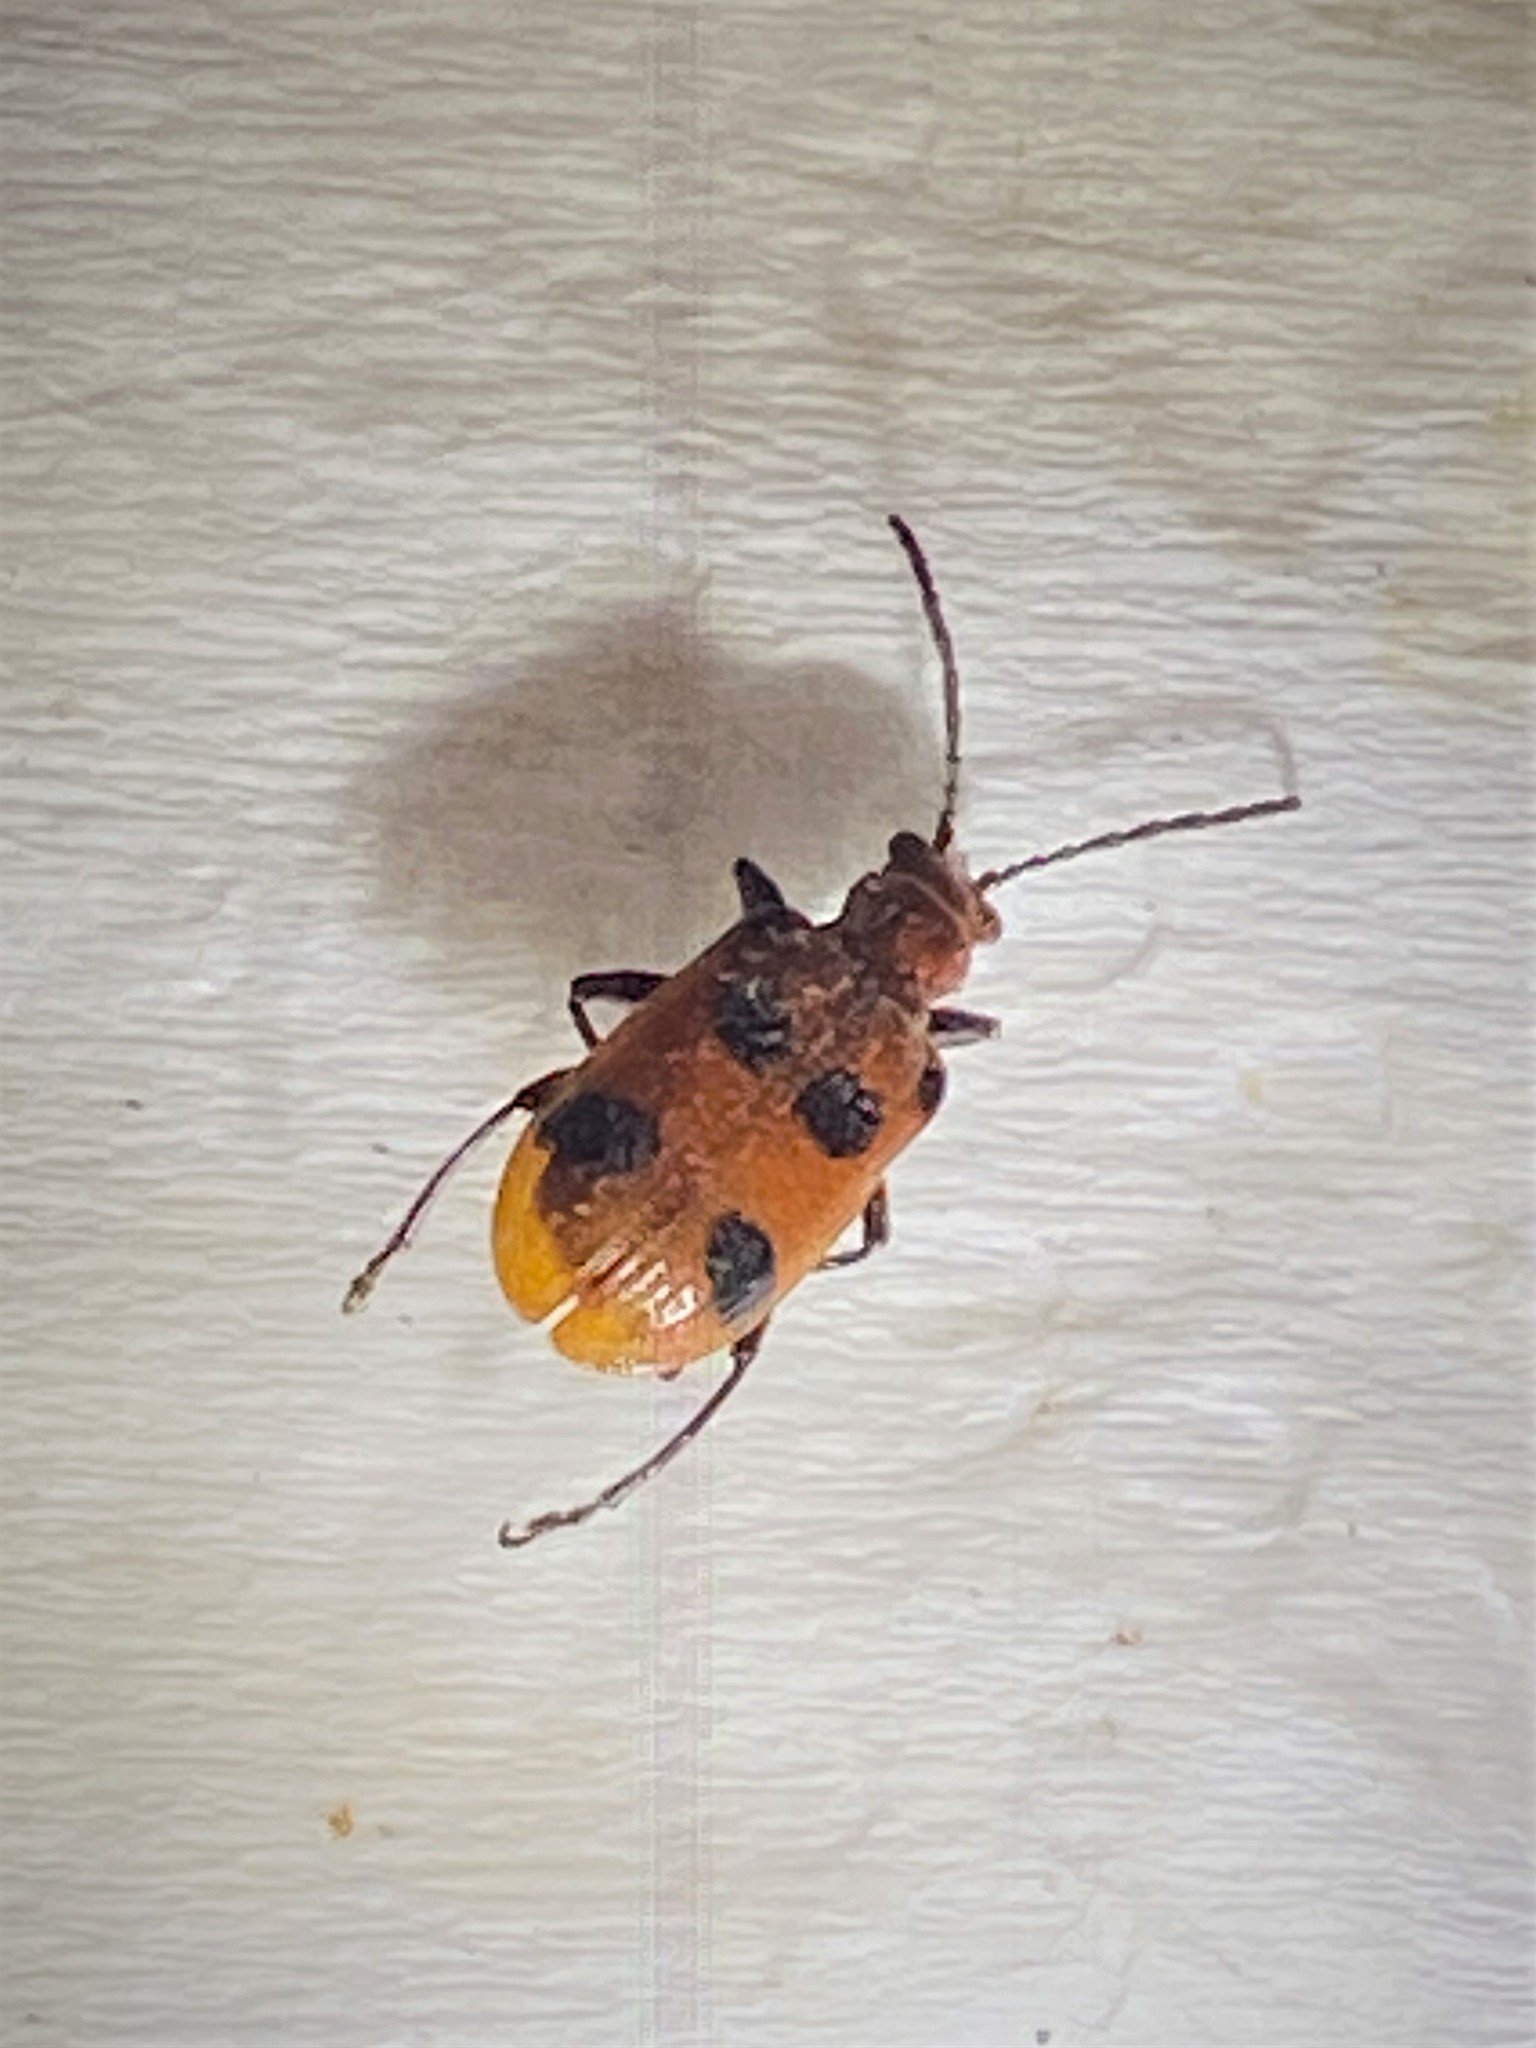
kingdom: Animalia
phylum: Arthropoda
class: Insecta
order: Coleoptera
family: Chrysomelidae
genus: Neolema
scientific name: Neolema sexpunctata
